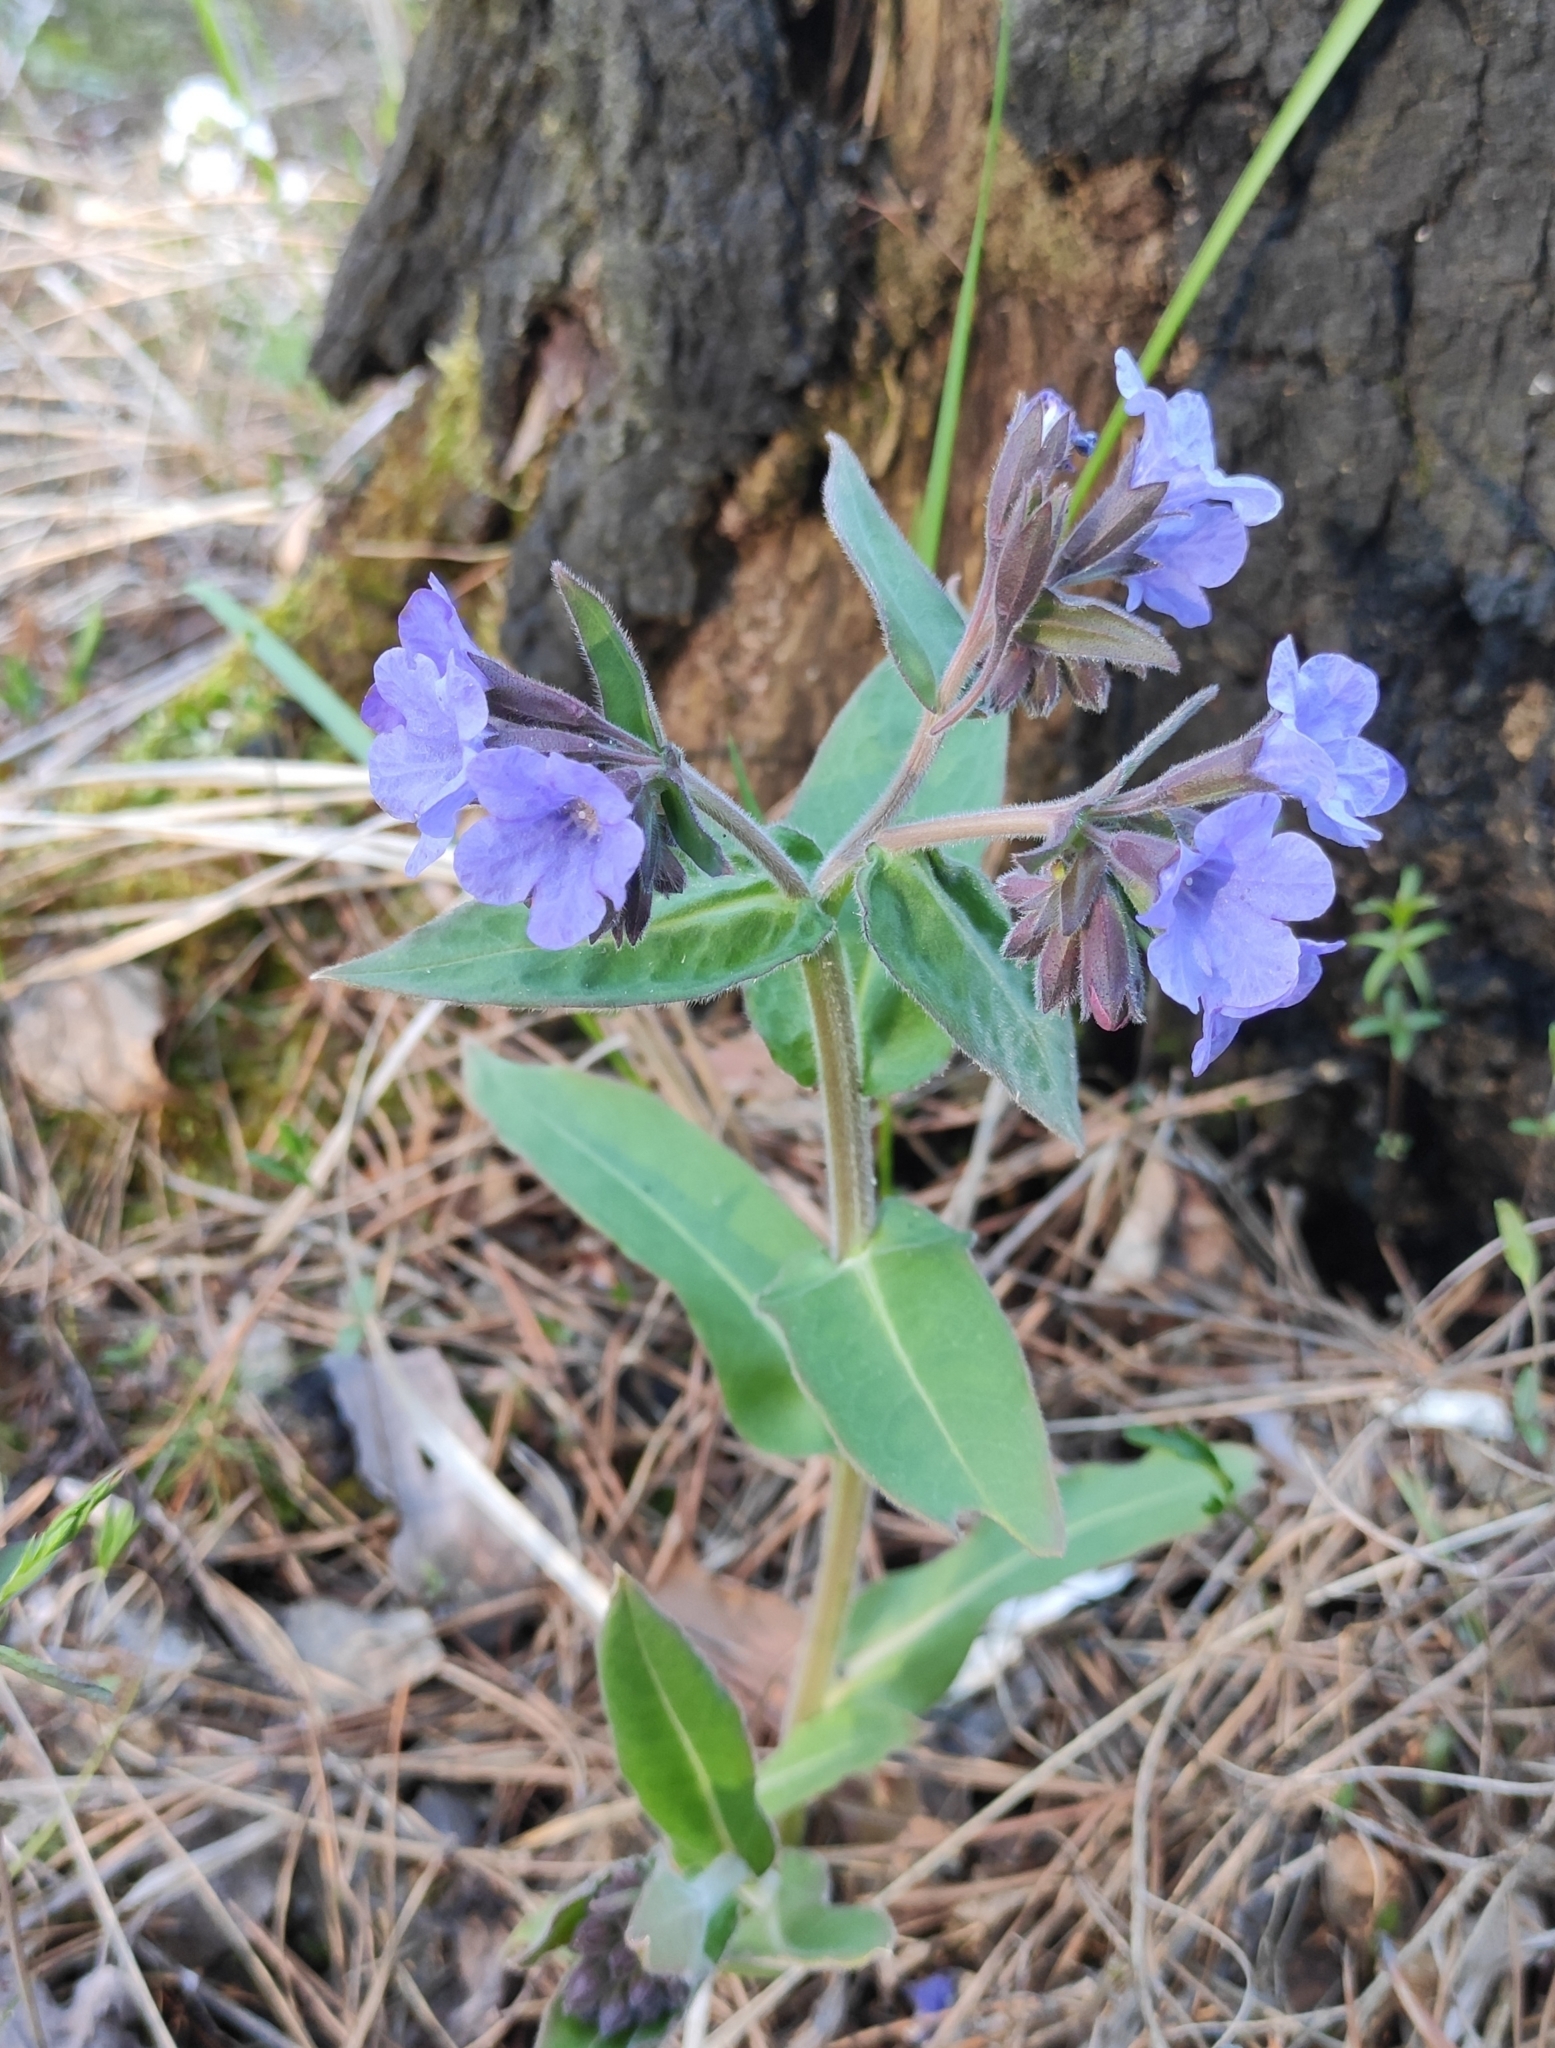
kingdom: Plantae
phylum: Tracheophyta
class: Magnoliopsida
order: Boraginales
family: Boraginaceae
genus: Pulmonaria
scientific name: Pulmonaria mollis
